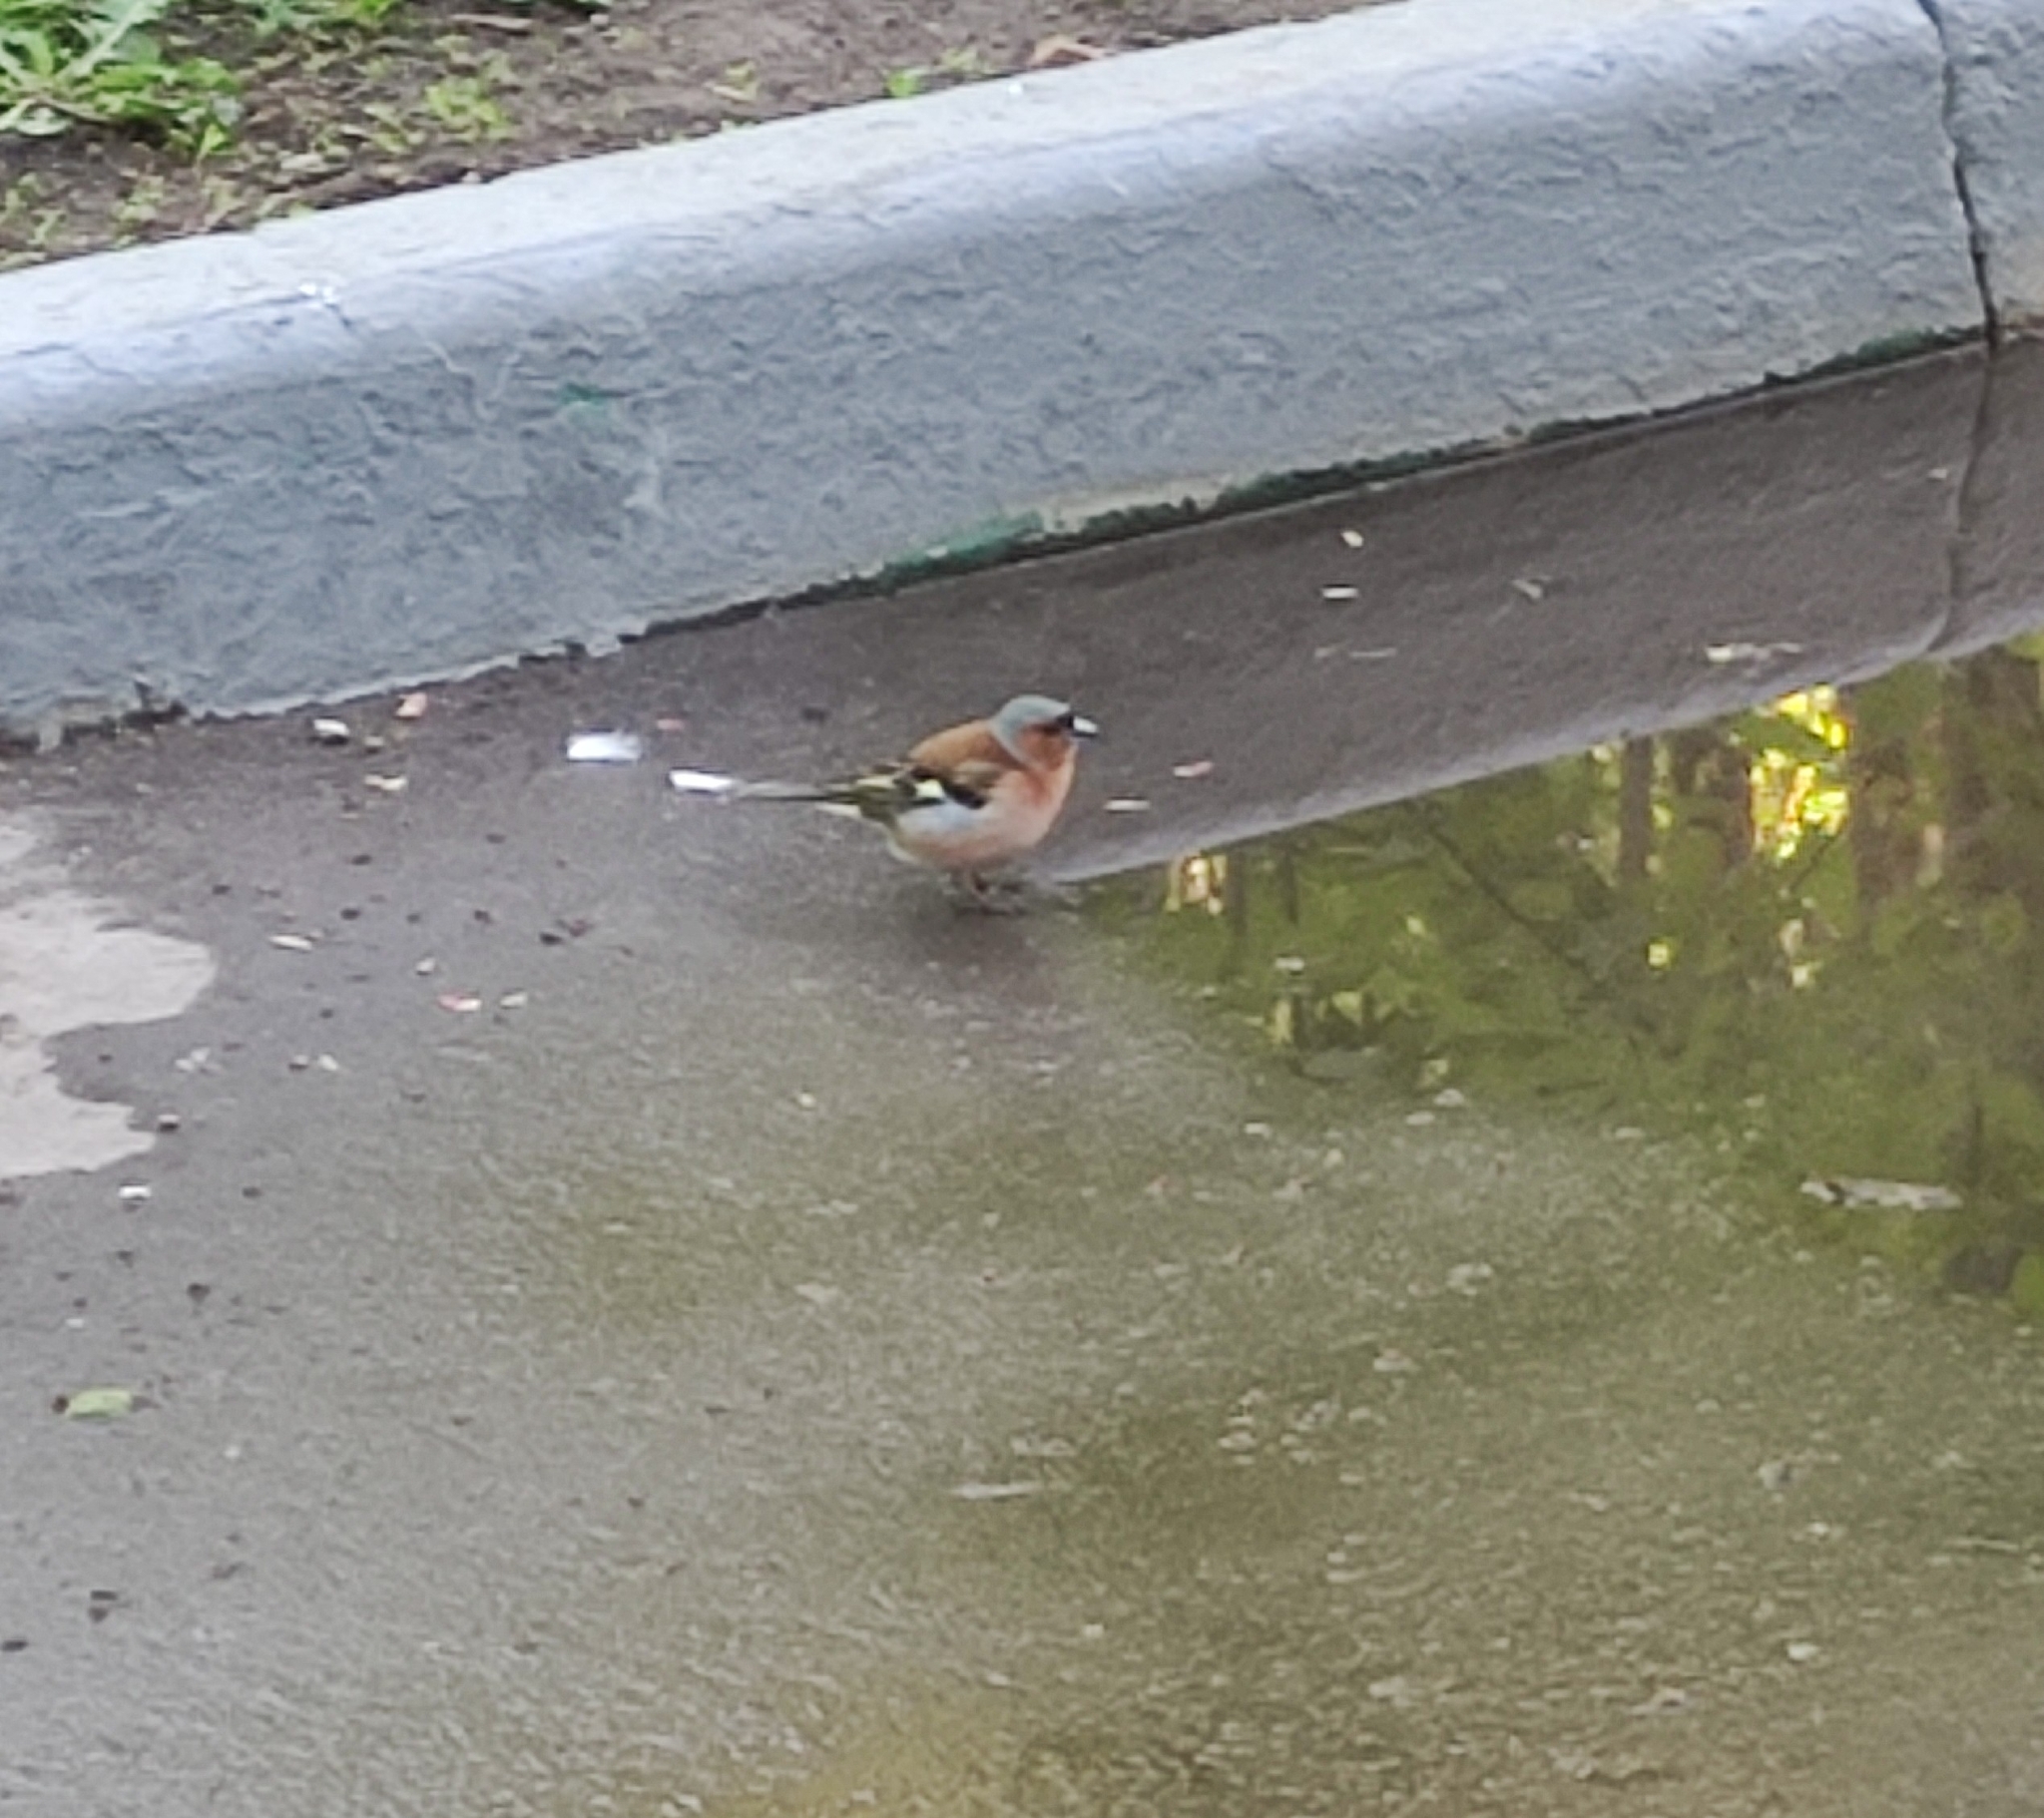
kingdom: Animalia
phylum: Chordata
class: Aves
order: Passeriformes
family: Fringillidae
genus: Fringilla
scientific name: Fringilla coelebs
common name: Common chaffinch
